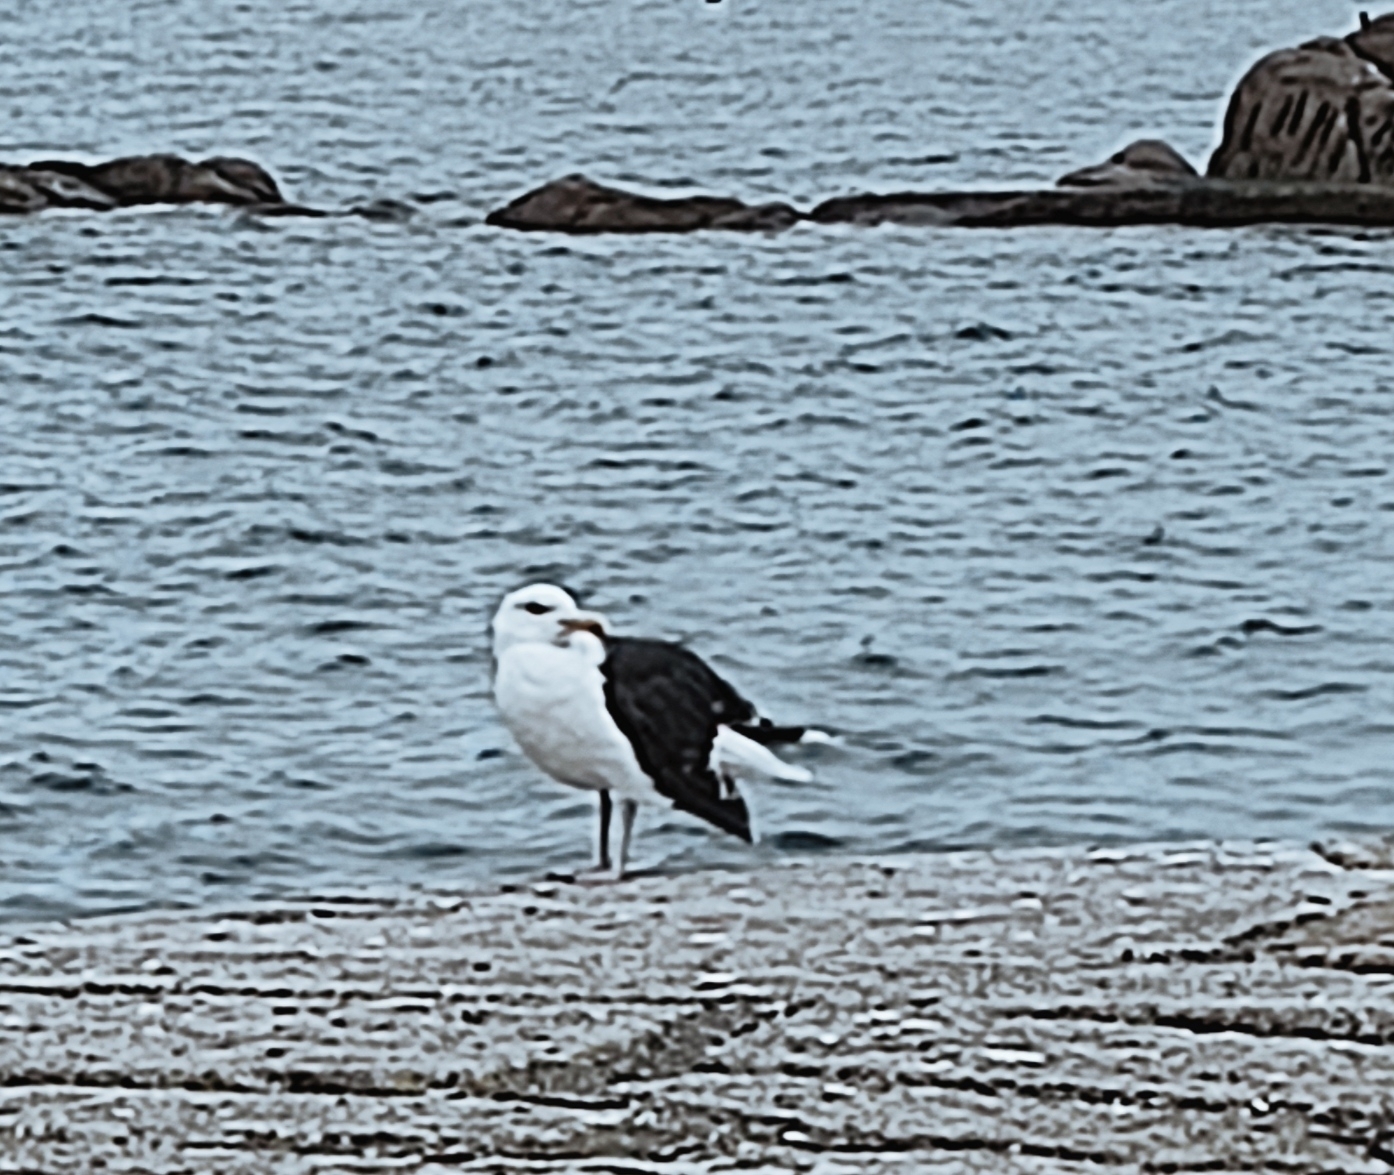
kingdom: Animalia
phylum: Chordata
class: Aves
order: Charadriiformes
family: Laridae
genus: Larus
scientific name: Larus marinus
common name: Great black-backed gull
